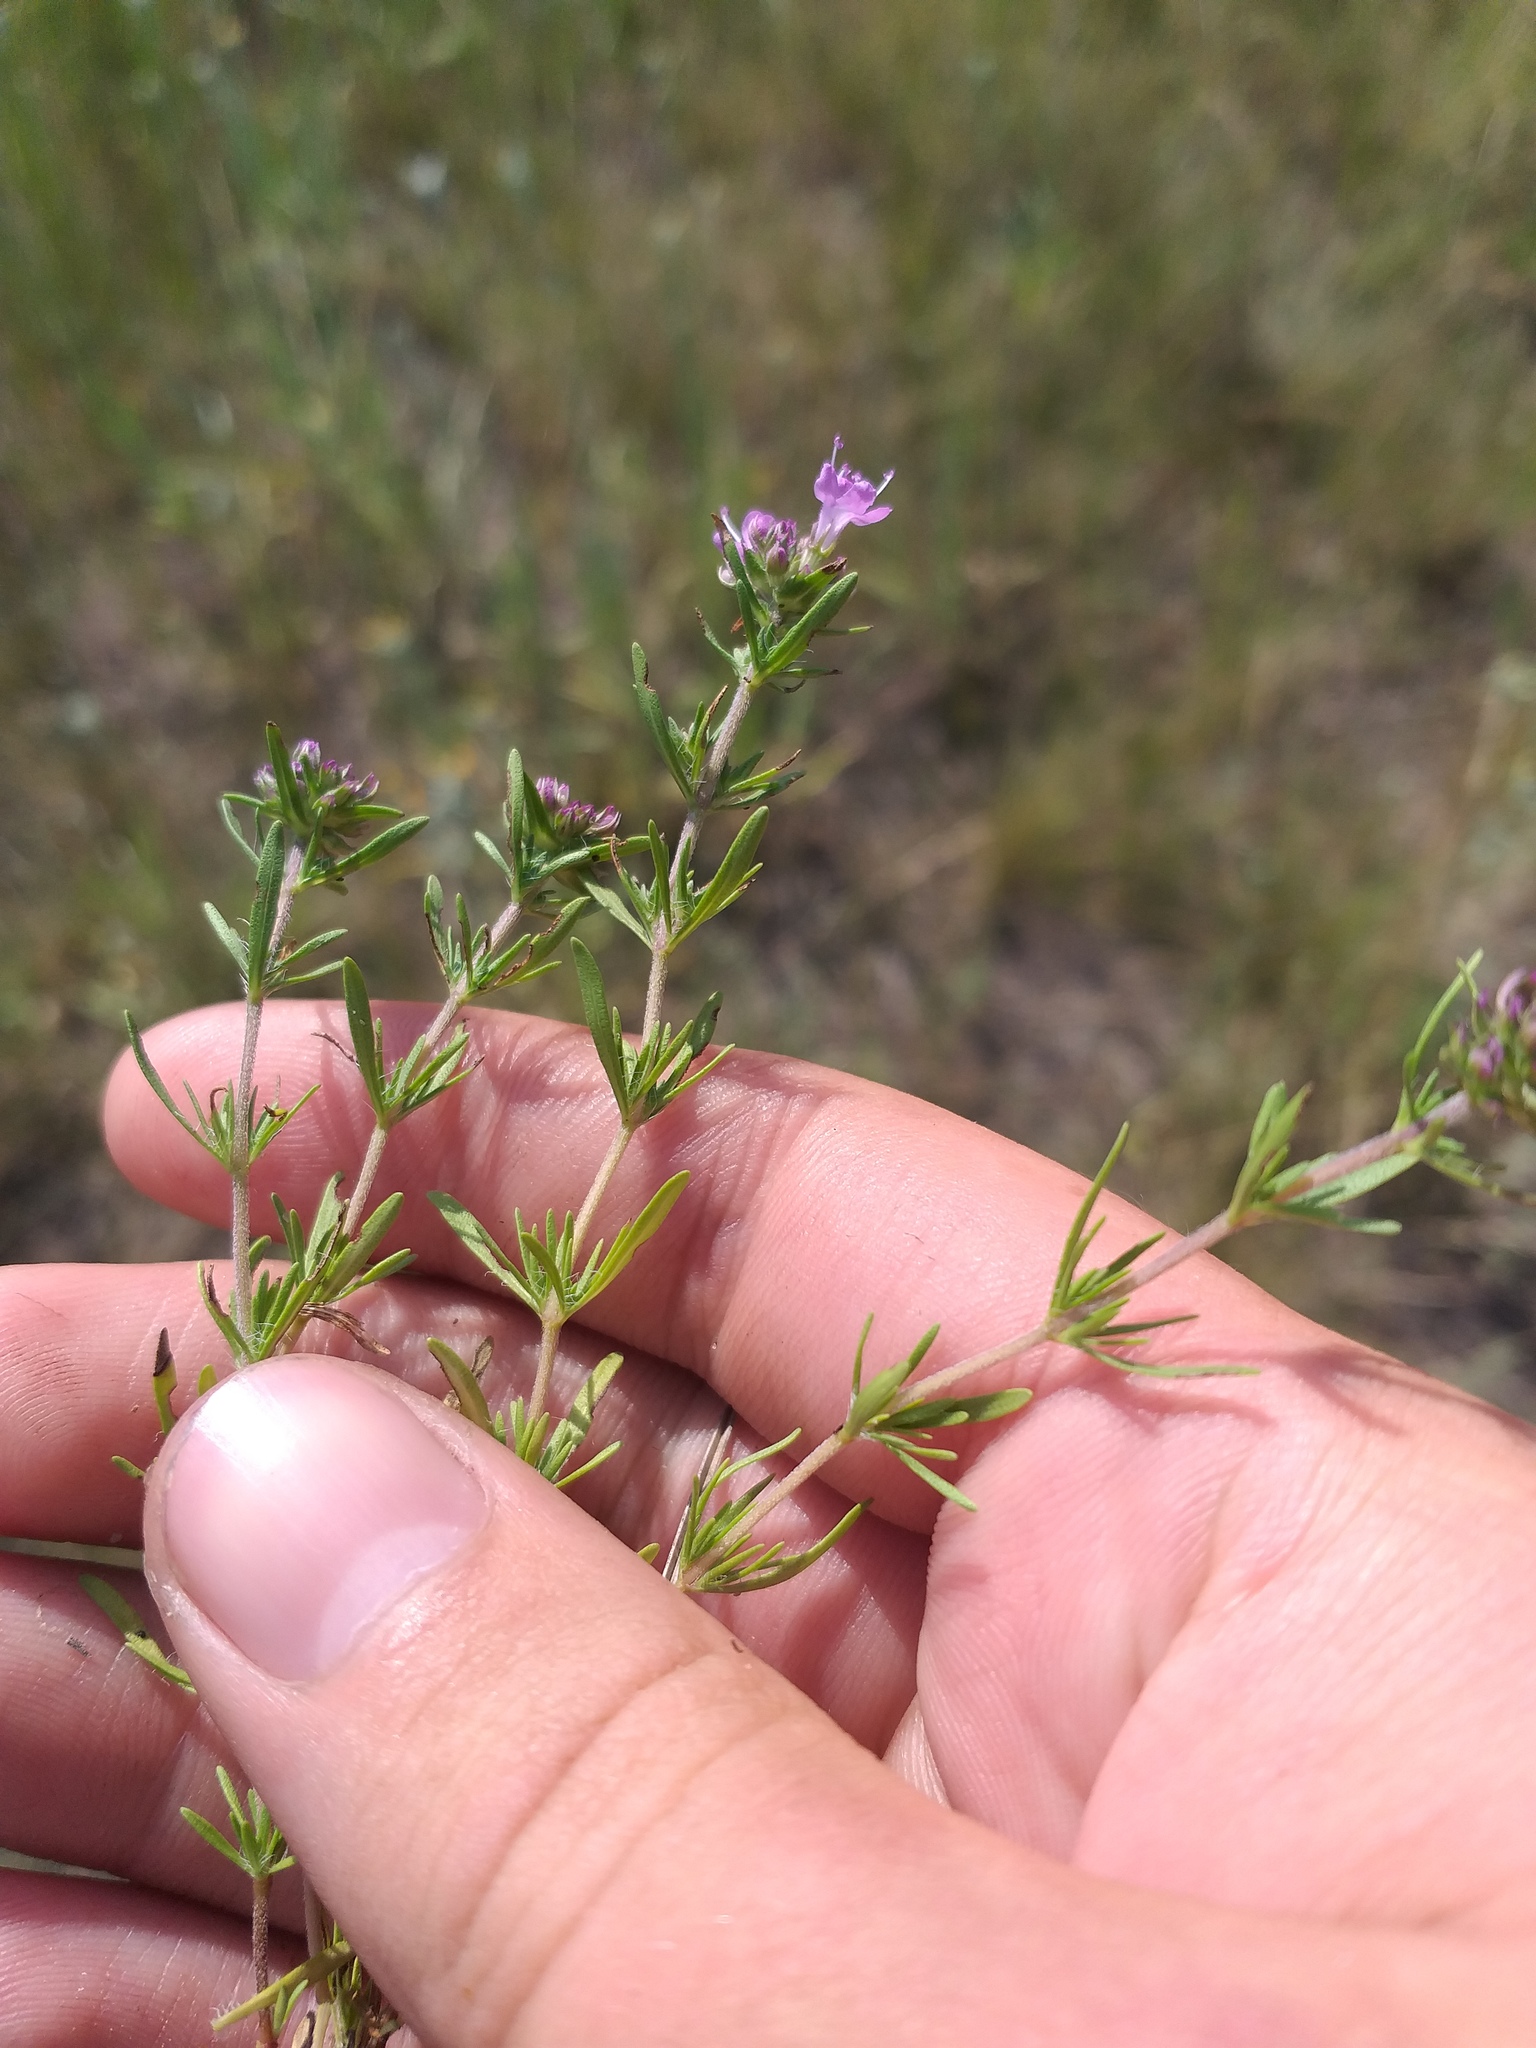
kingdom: Plantae
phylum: Tracheophyta
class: Magnoliopsida
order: Lamiales
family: Lamiaceae
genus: Thymus
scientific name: Thymus pallasianus
